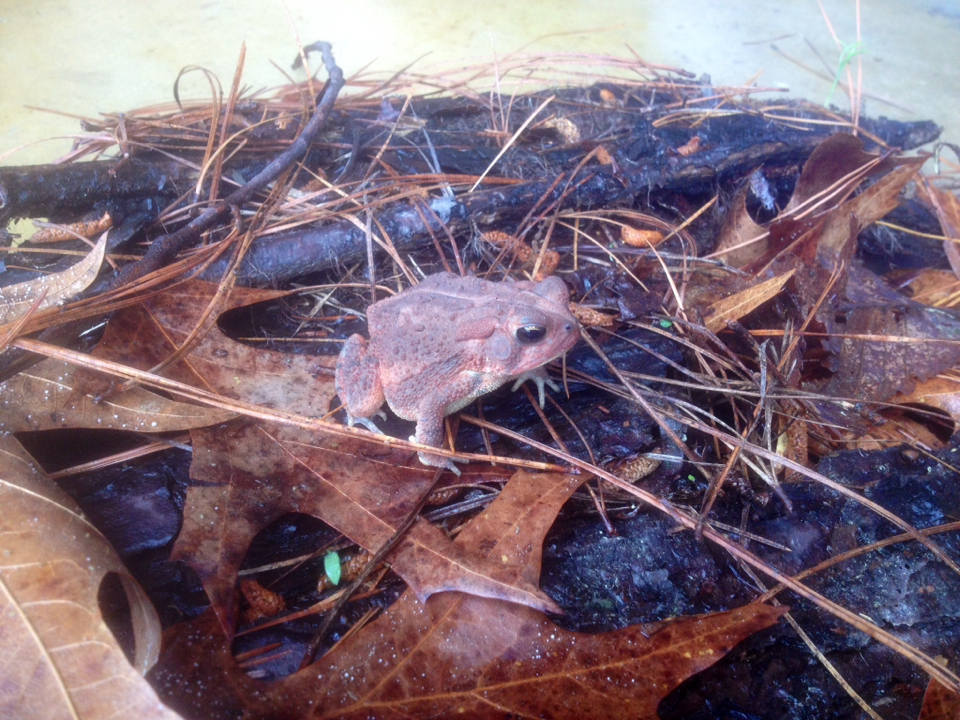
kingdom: Animalia
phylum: Chordata
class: Amphibia
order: Anura
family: Bufonidae
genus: Anaxyrus
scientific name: Anaxyrus americanus
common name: American toad
